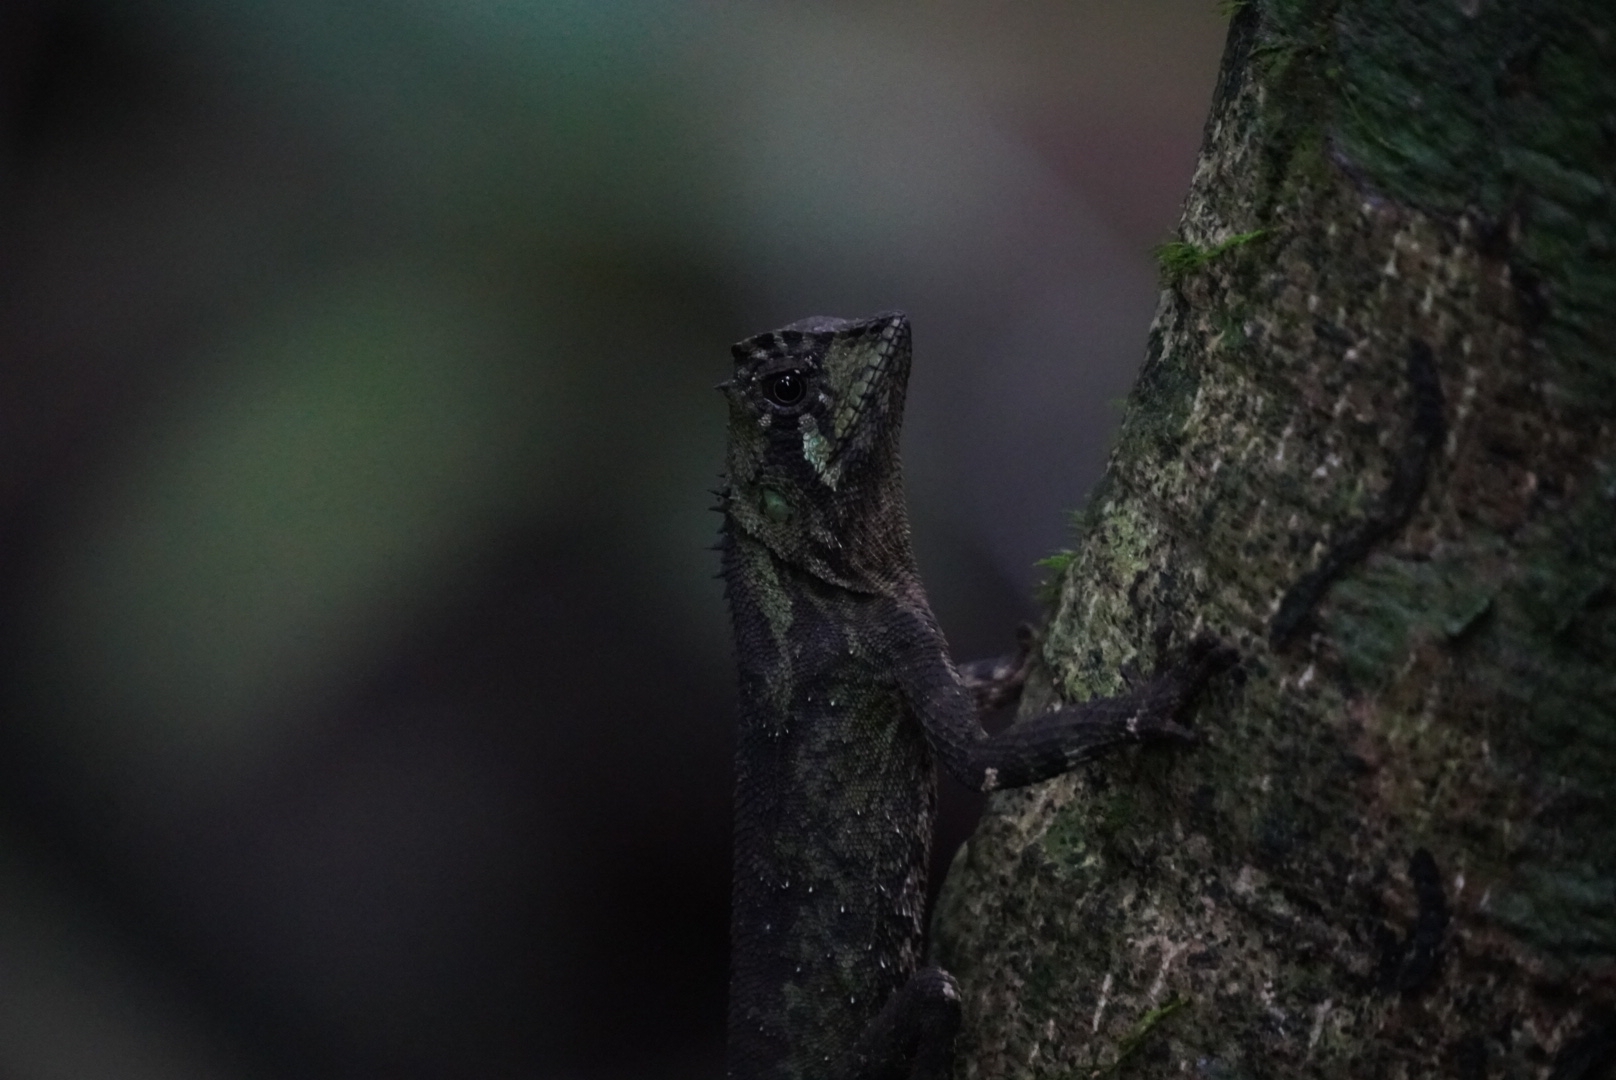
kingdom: Animalia
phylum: Chordata
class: Squamata
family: Agamidae
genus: Acanthosaura
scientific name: Acanthosaura coronata
